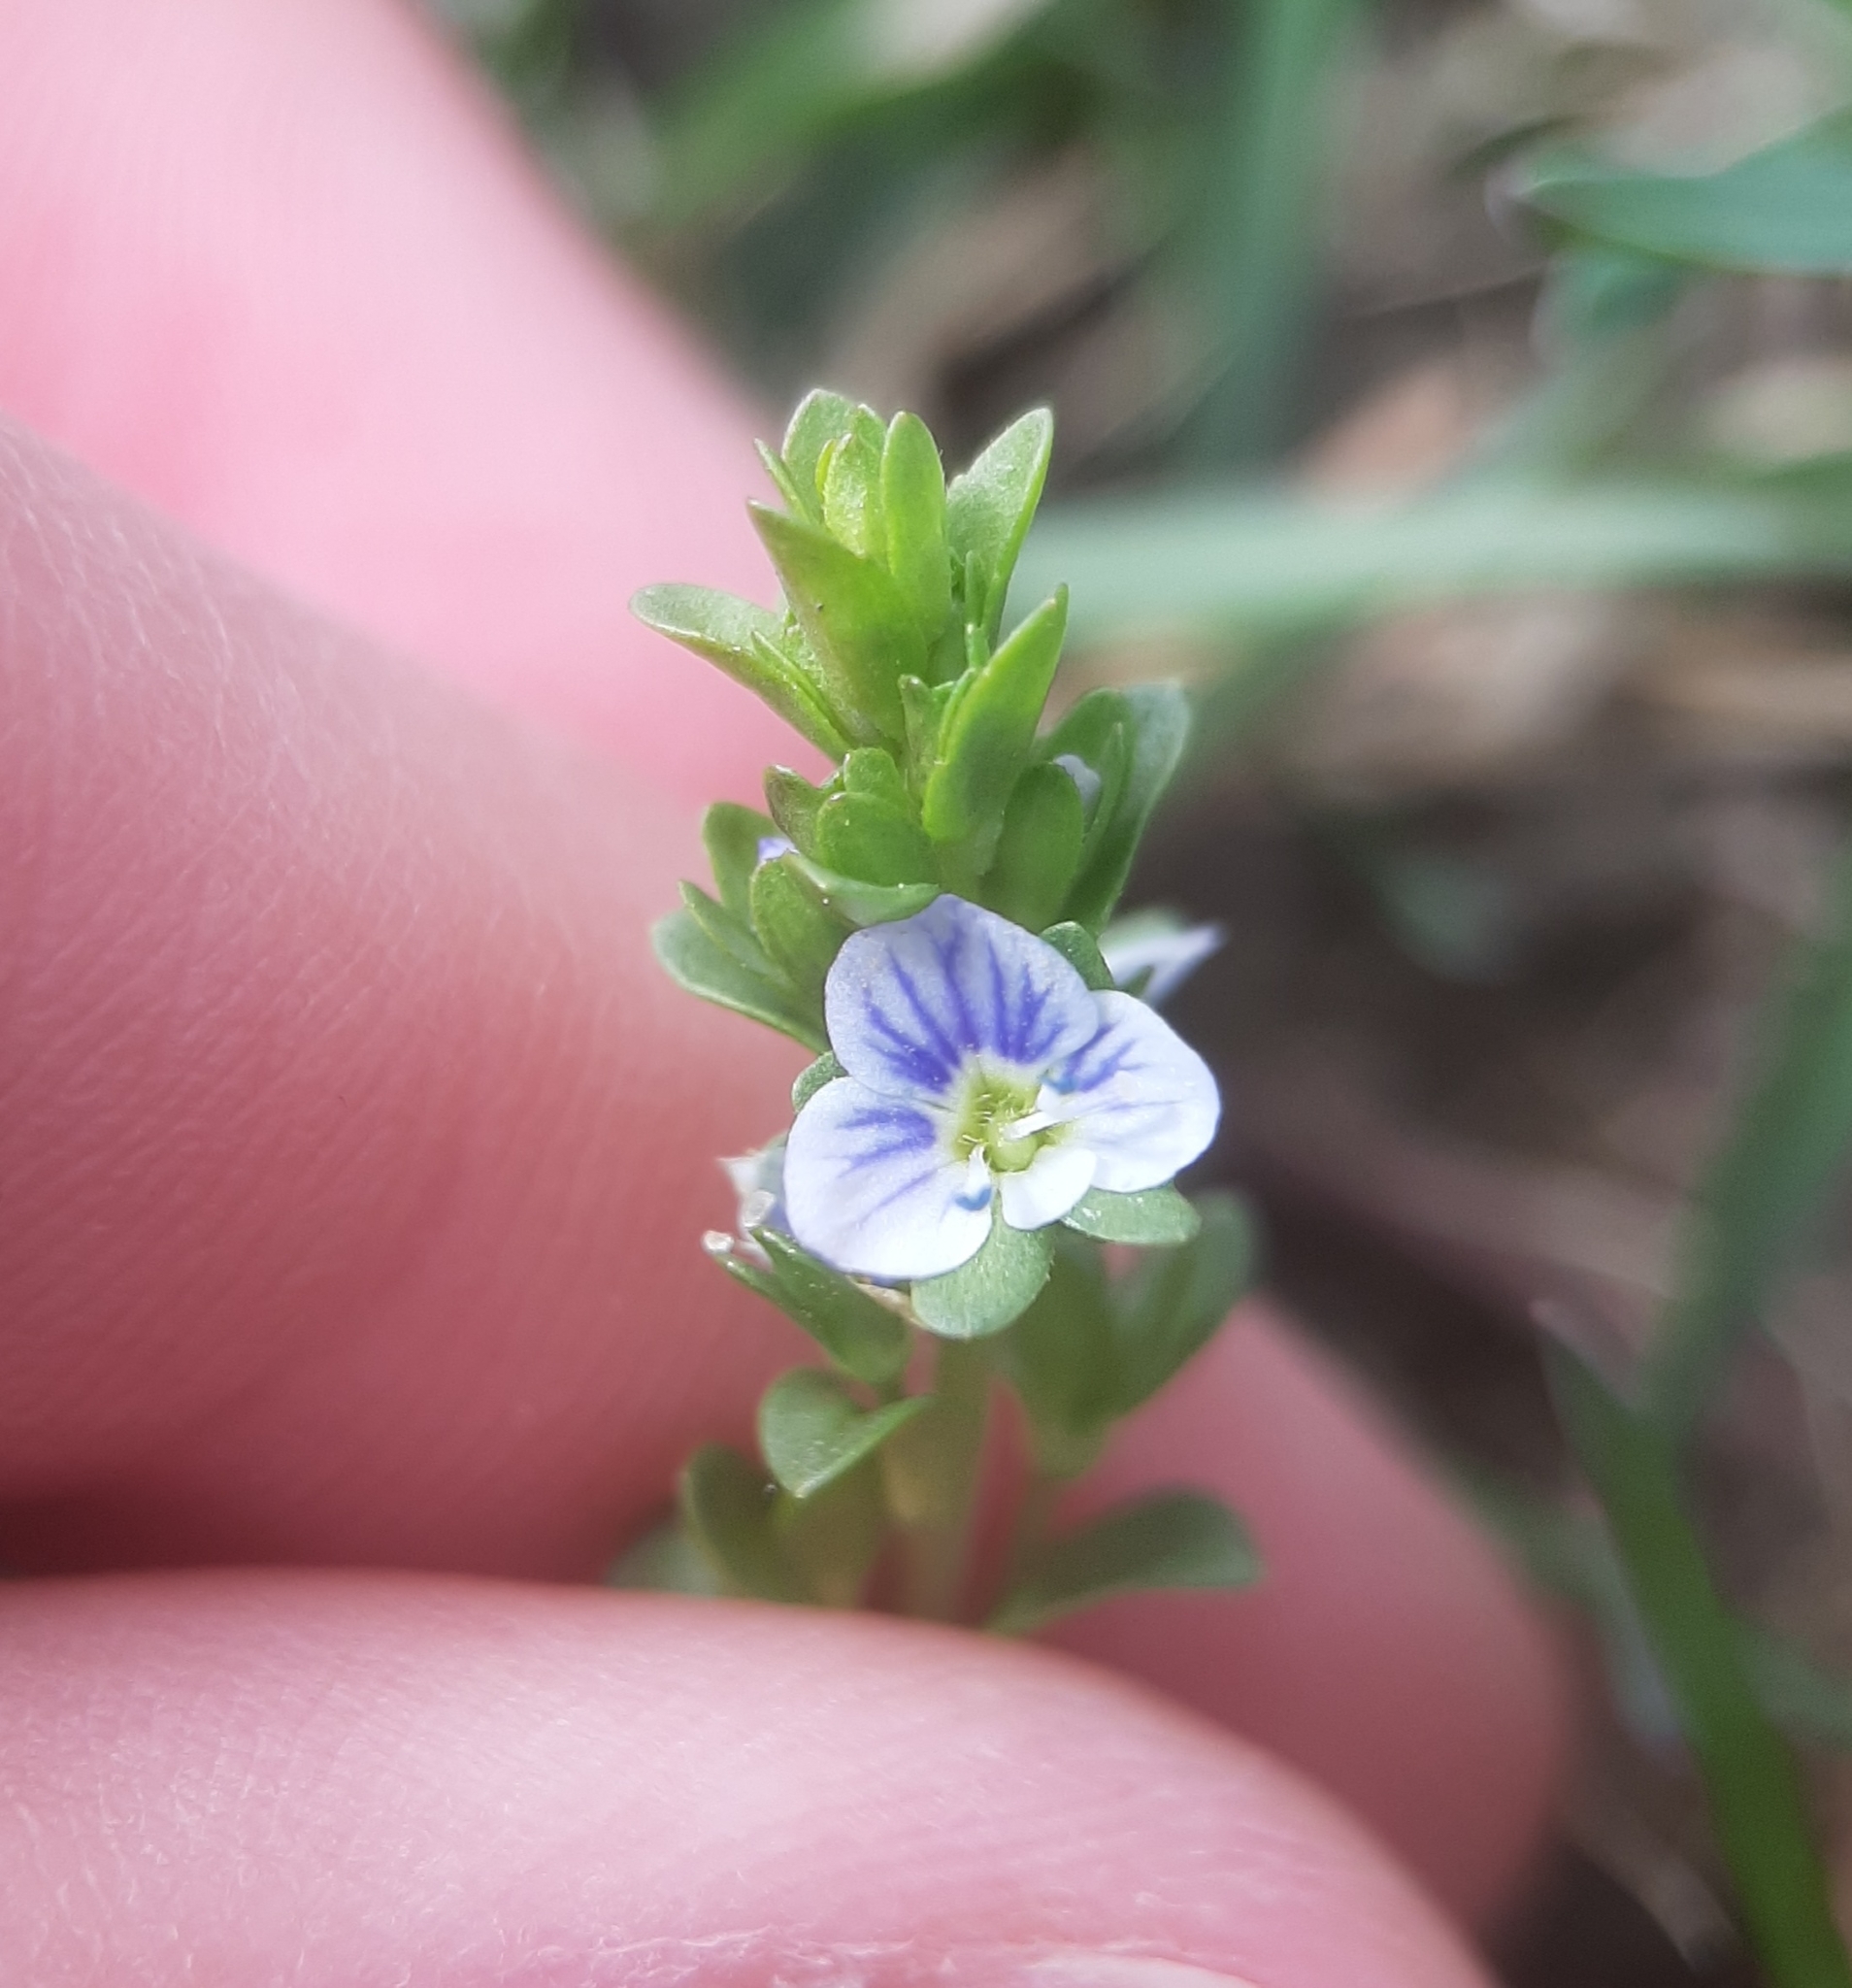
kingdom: Plantae
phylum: Tracheophyta
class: Magnoliopsida
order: Lamiales
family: Plantaginaceae
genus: Veronica
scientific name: Veronica serpyllifolia
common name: Thyme-leaved speedwell
